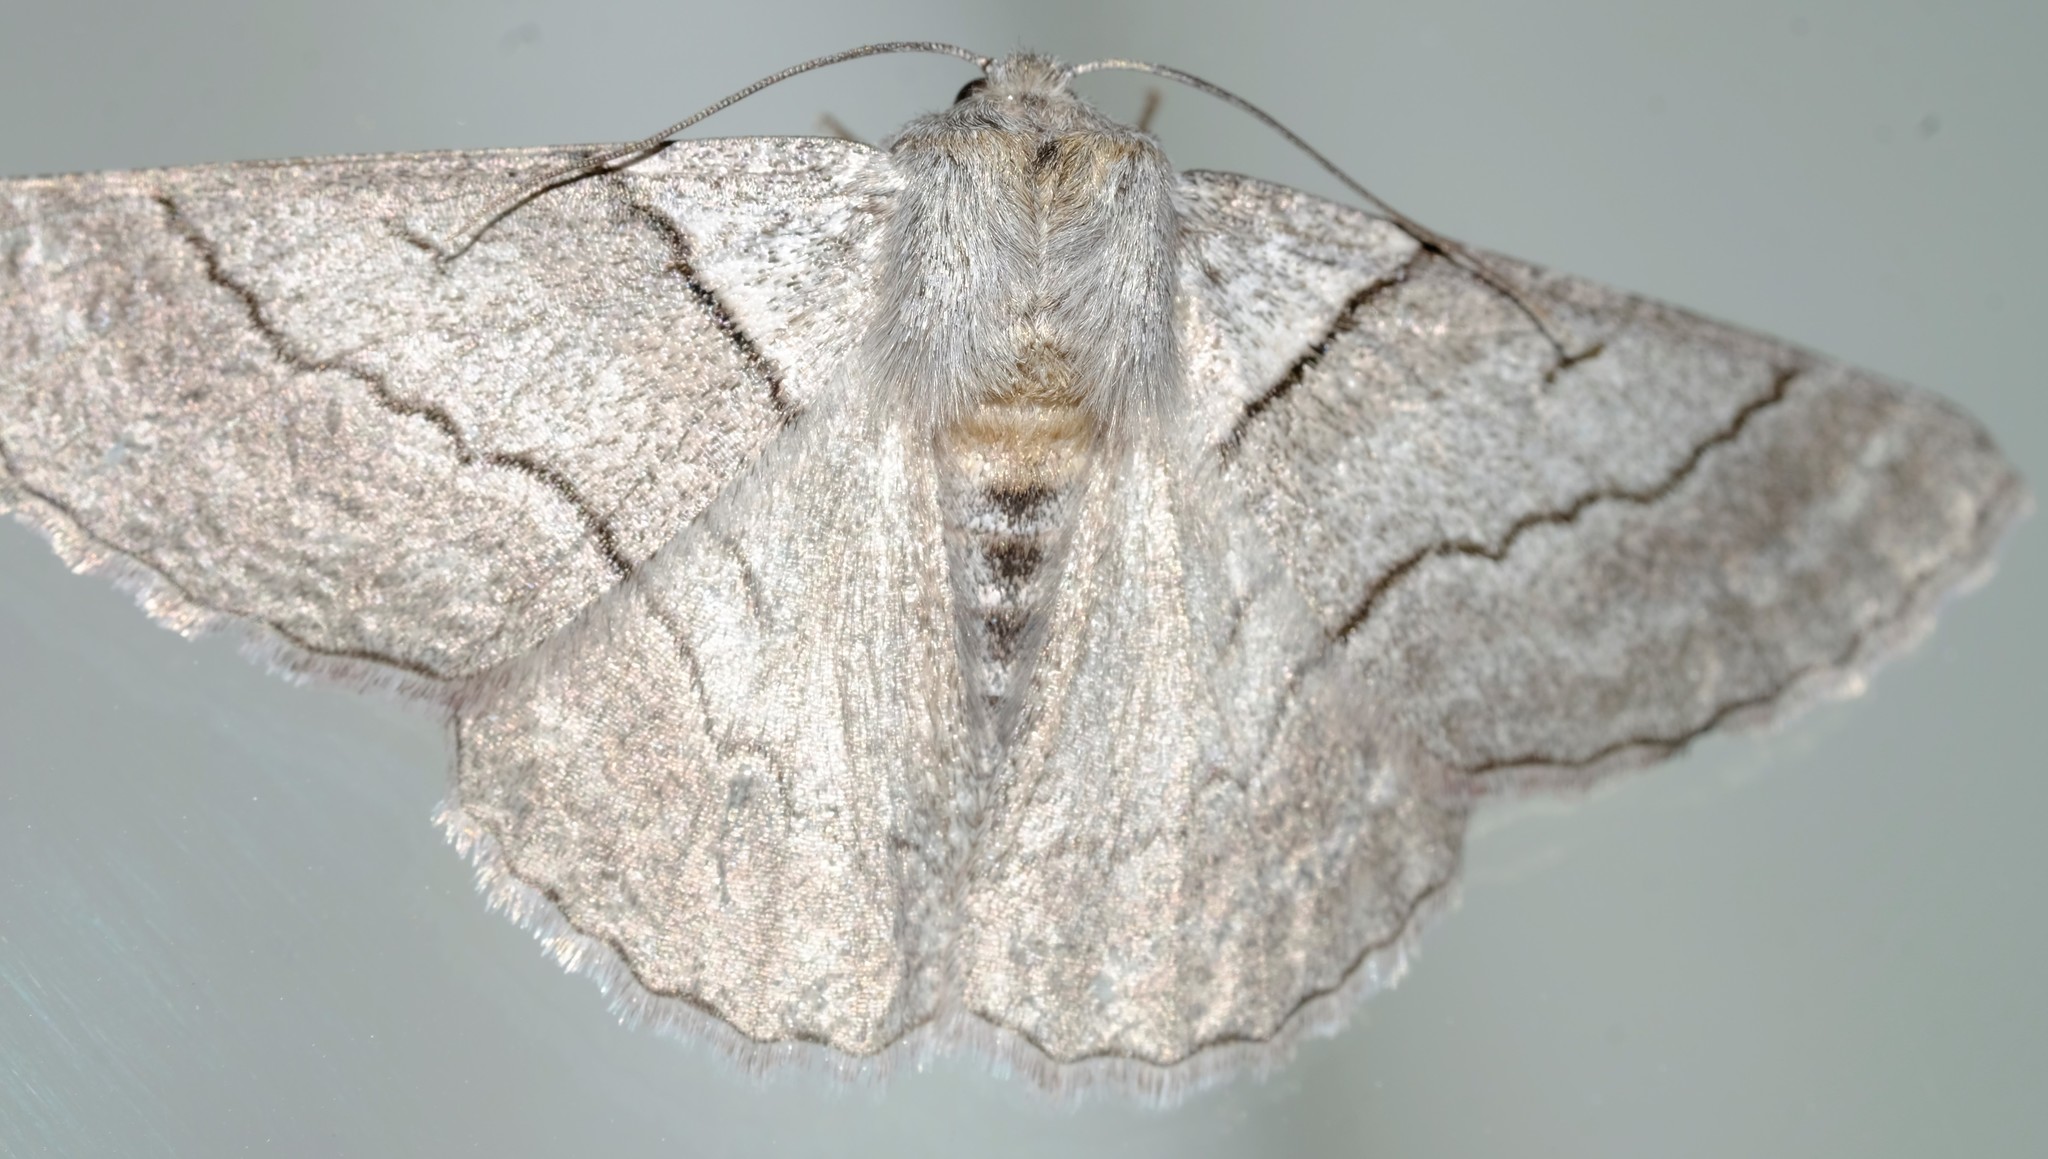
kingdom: Animalia
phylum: Arthropoda
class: Insecta
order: Lepidoptera
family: Geometridae
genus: Hypobapta
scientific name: Hypobapta tachyhalotaria
